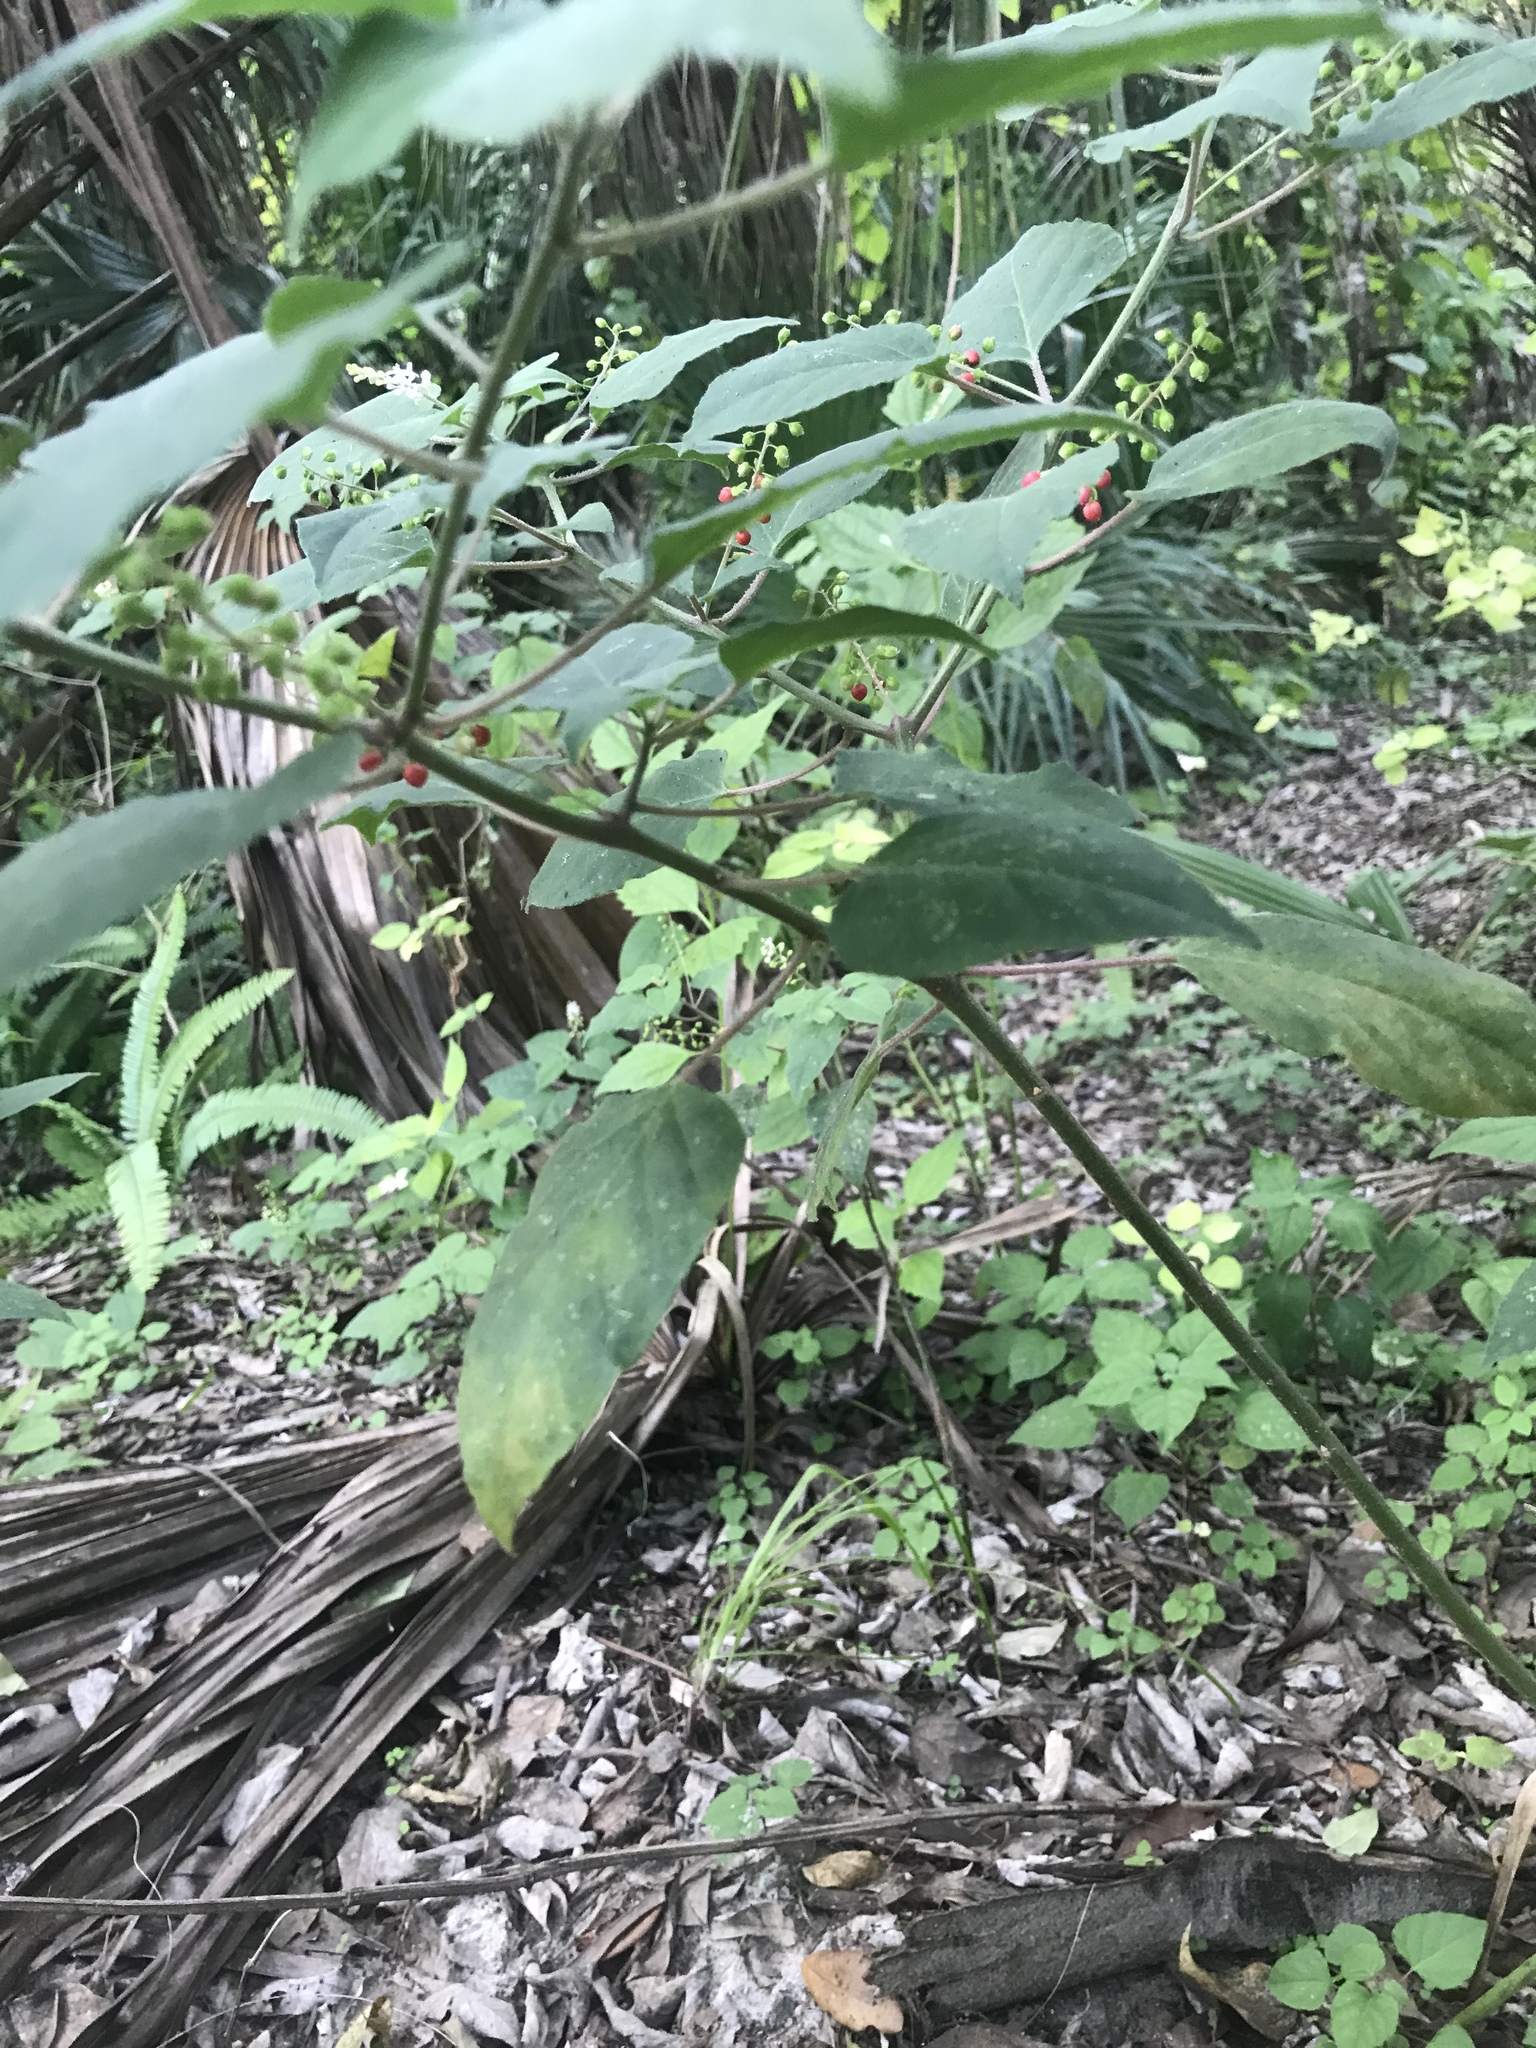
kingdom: Plantae
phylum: Tracheophyta
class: Magnoliopsida
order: Caryophyllales
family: Phytolaccaceae
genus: Rivina
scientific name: Rivina humilis
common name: Rougeplant
